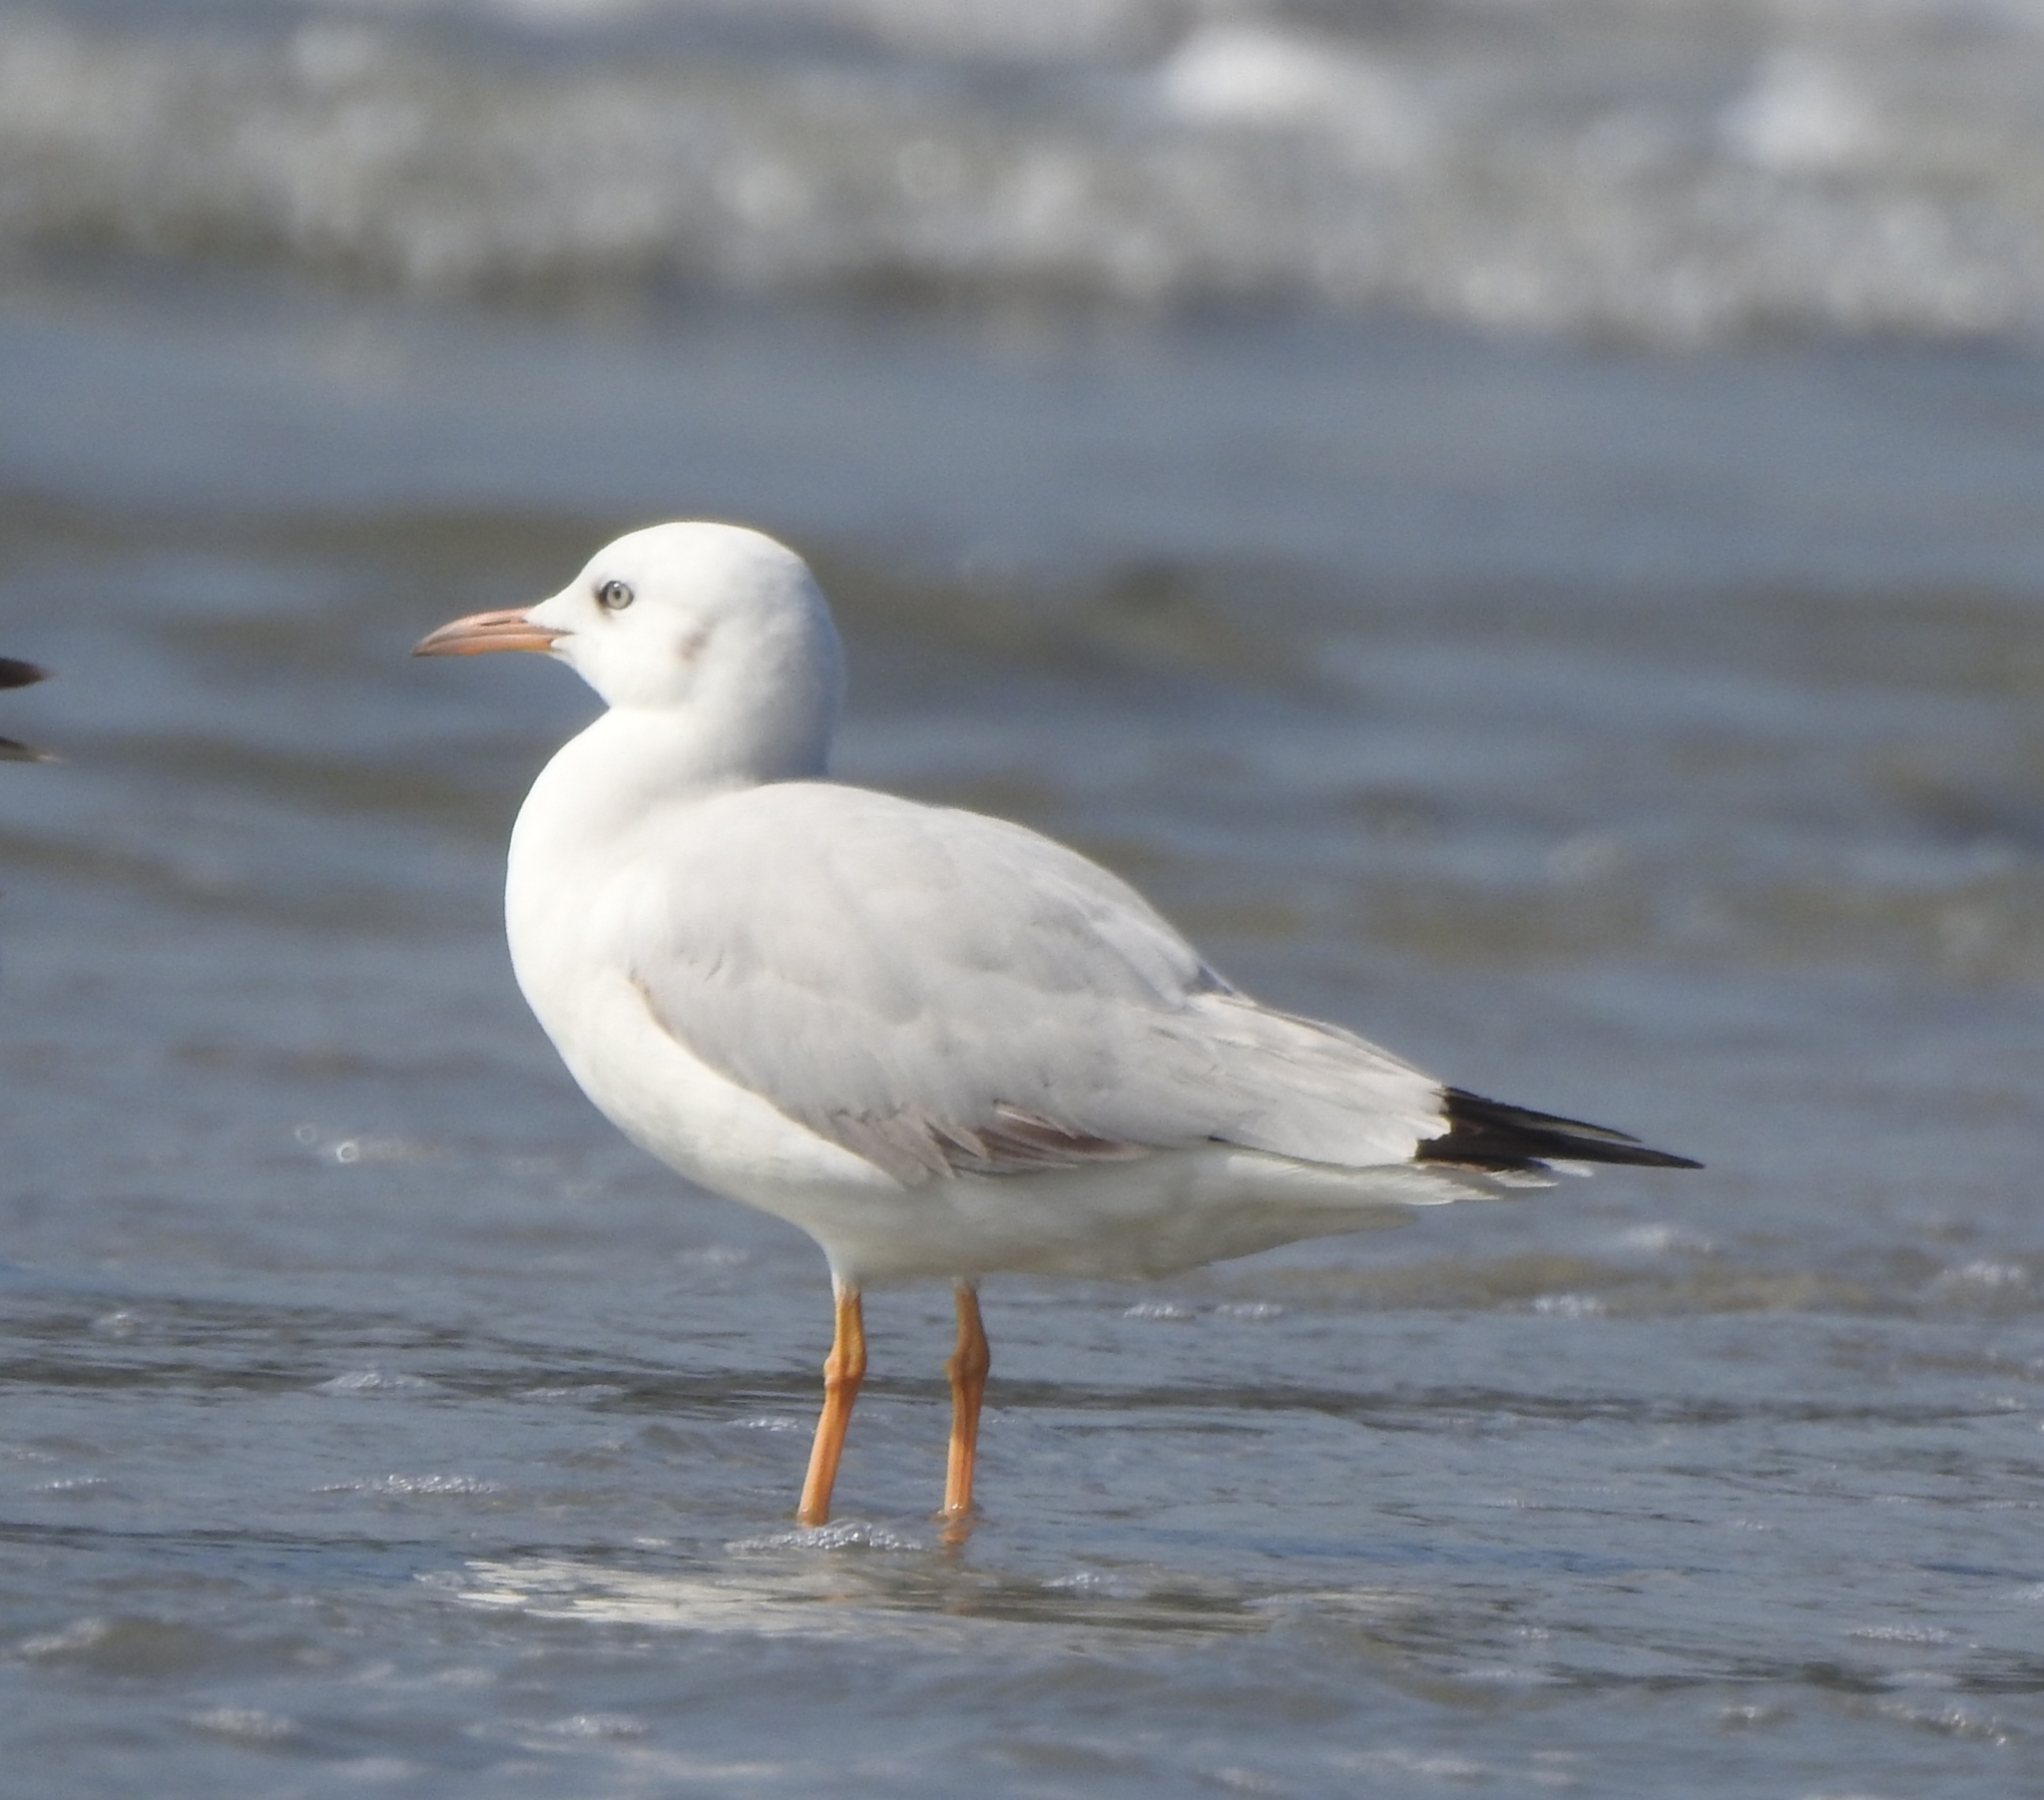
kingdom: Animalia
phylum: Chordata
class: Aves
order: Charadriiformes
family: Laridae
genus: Chroicocephalus
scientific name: Chroicocephalus genei
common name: Slender-billed gull
